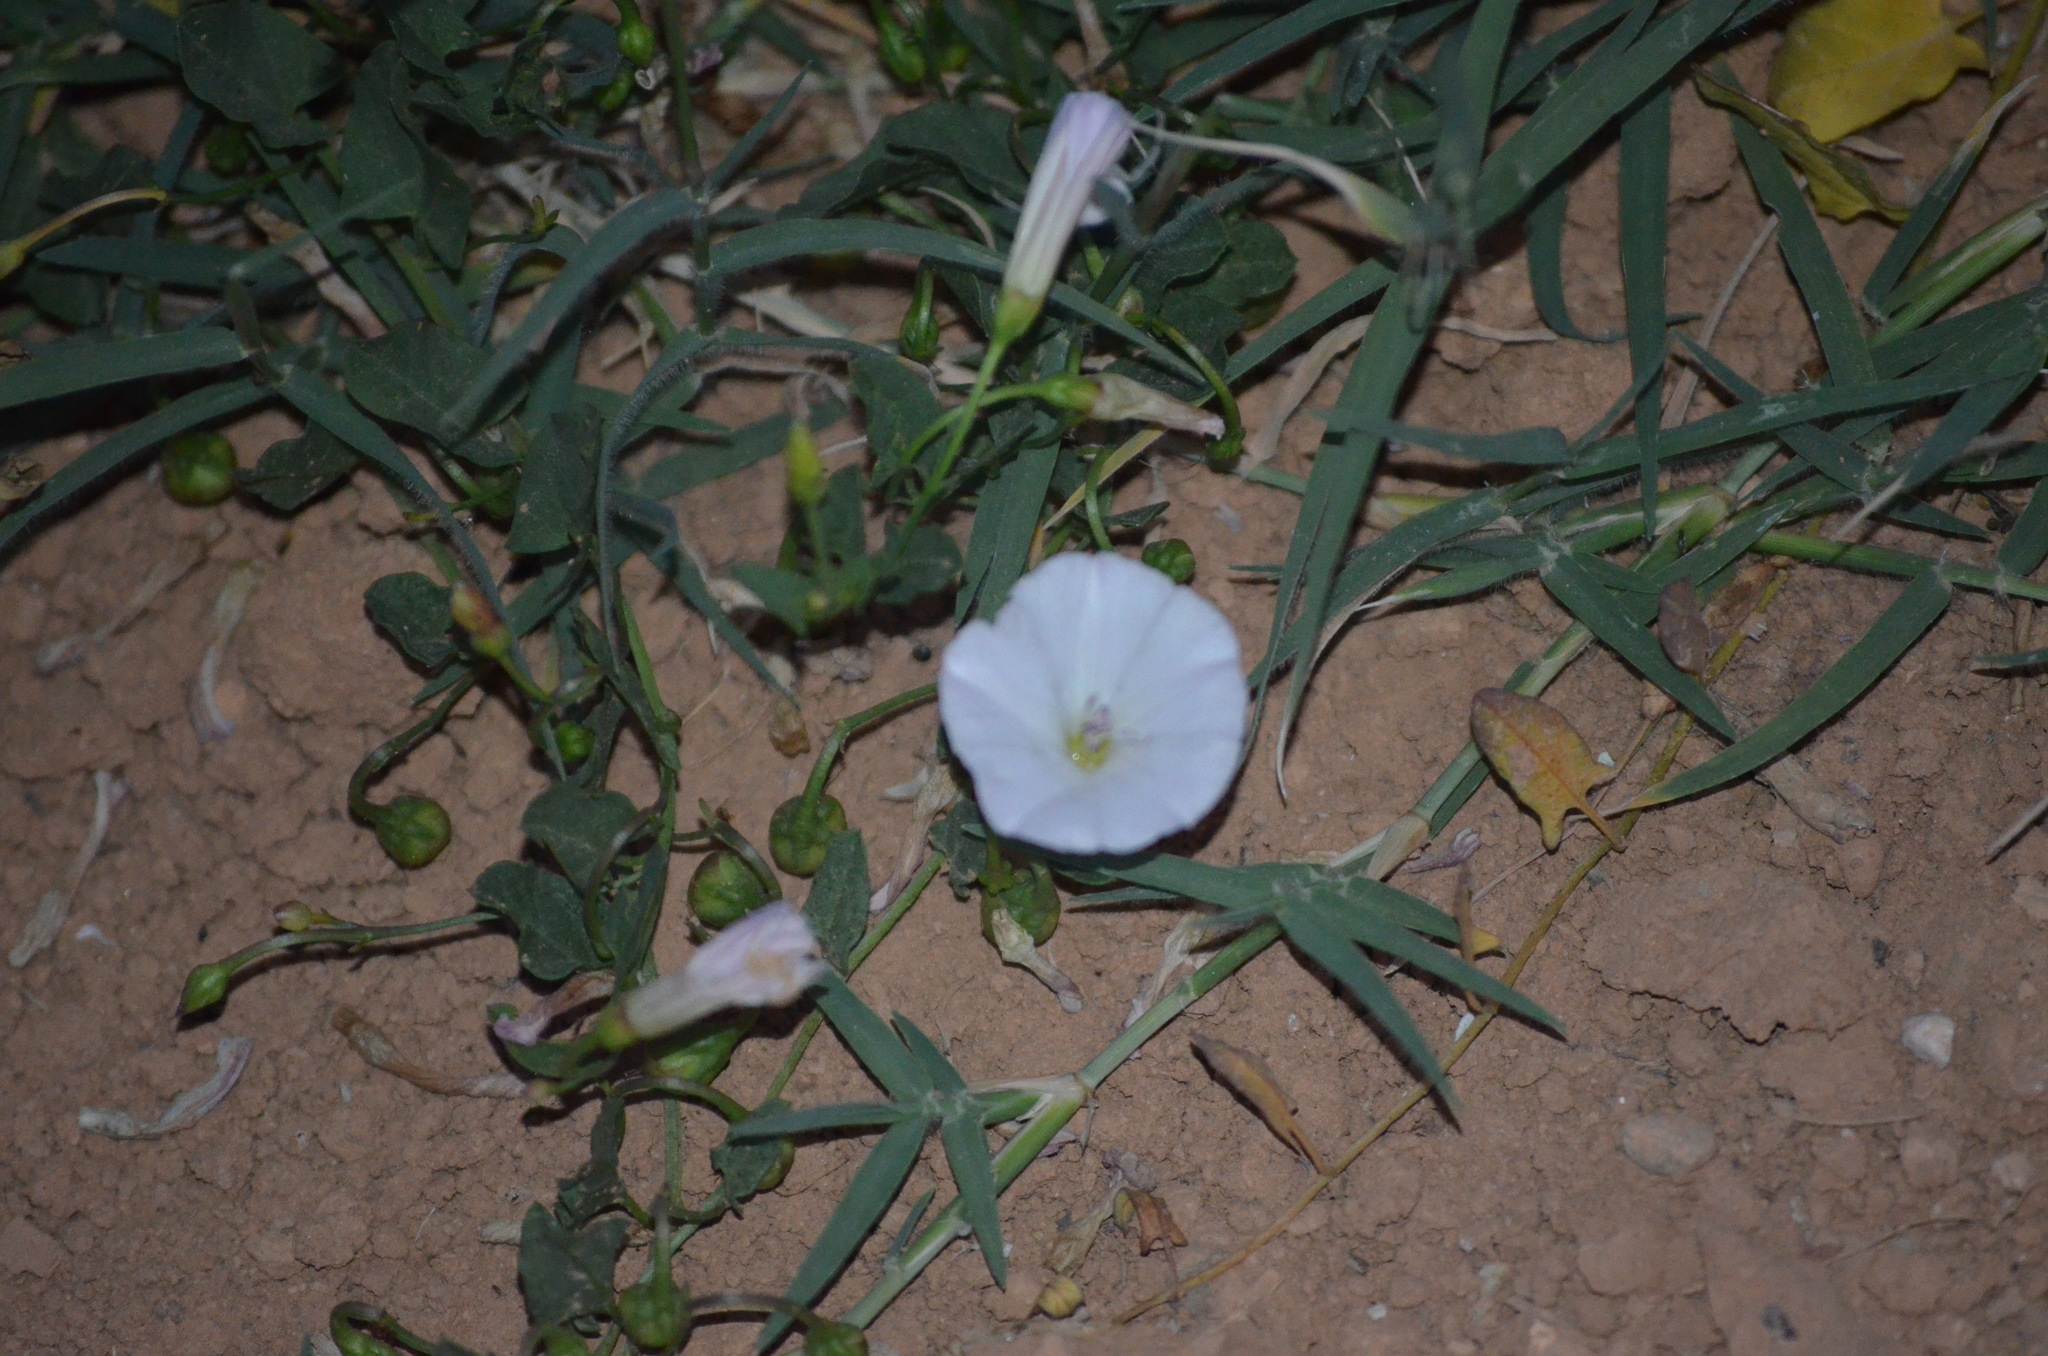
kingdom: Plantae
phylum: Tracheophyta
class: Magnoliopsida
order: Solanales
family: Convolvulaceae
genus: Convolvulus
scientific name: Convolvulus arvensis
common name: Field bindweed
